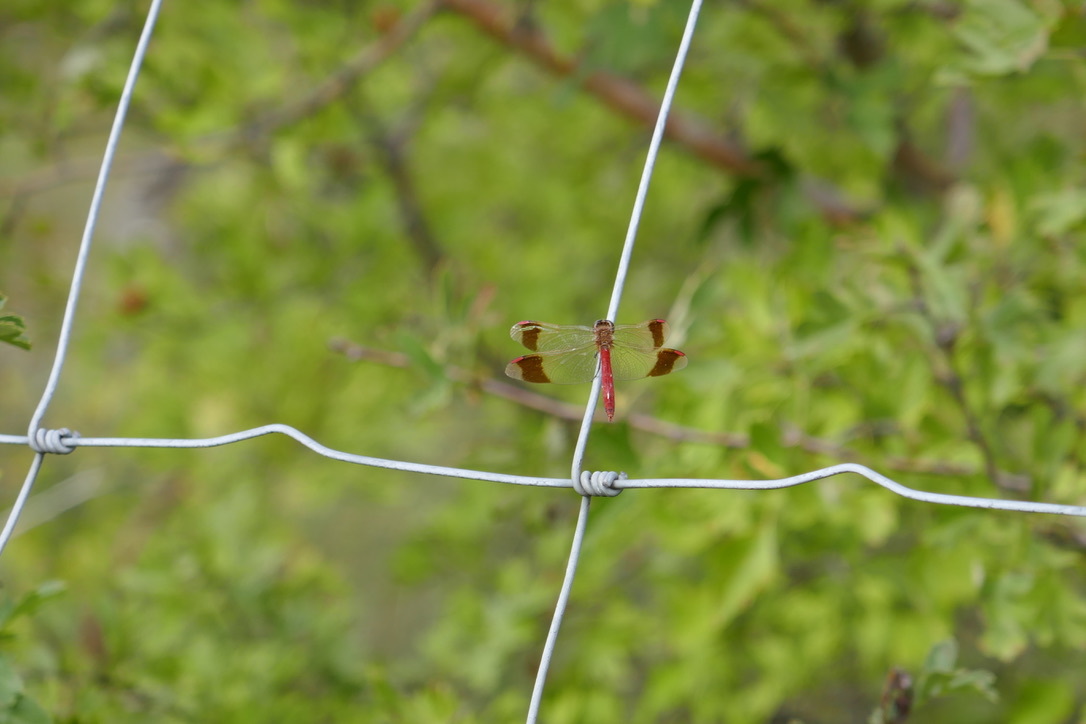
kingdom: Animalia
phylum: Arthropoda
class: Insecta
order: Odonata
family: Libellulidae
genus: Sympetrum
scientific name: Sympetrum pedemontanum
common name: Banded darter
